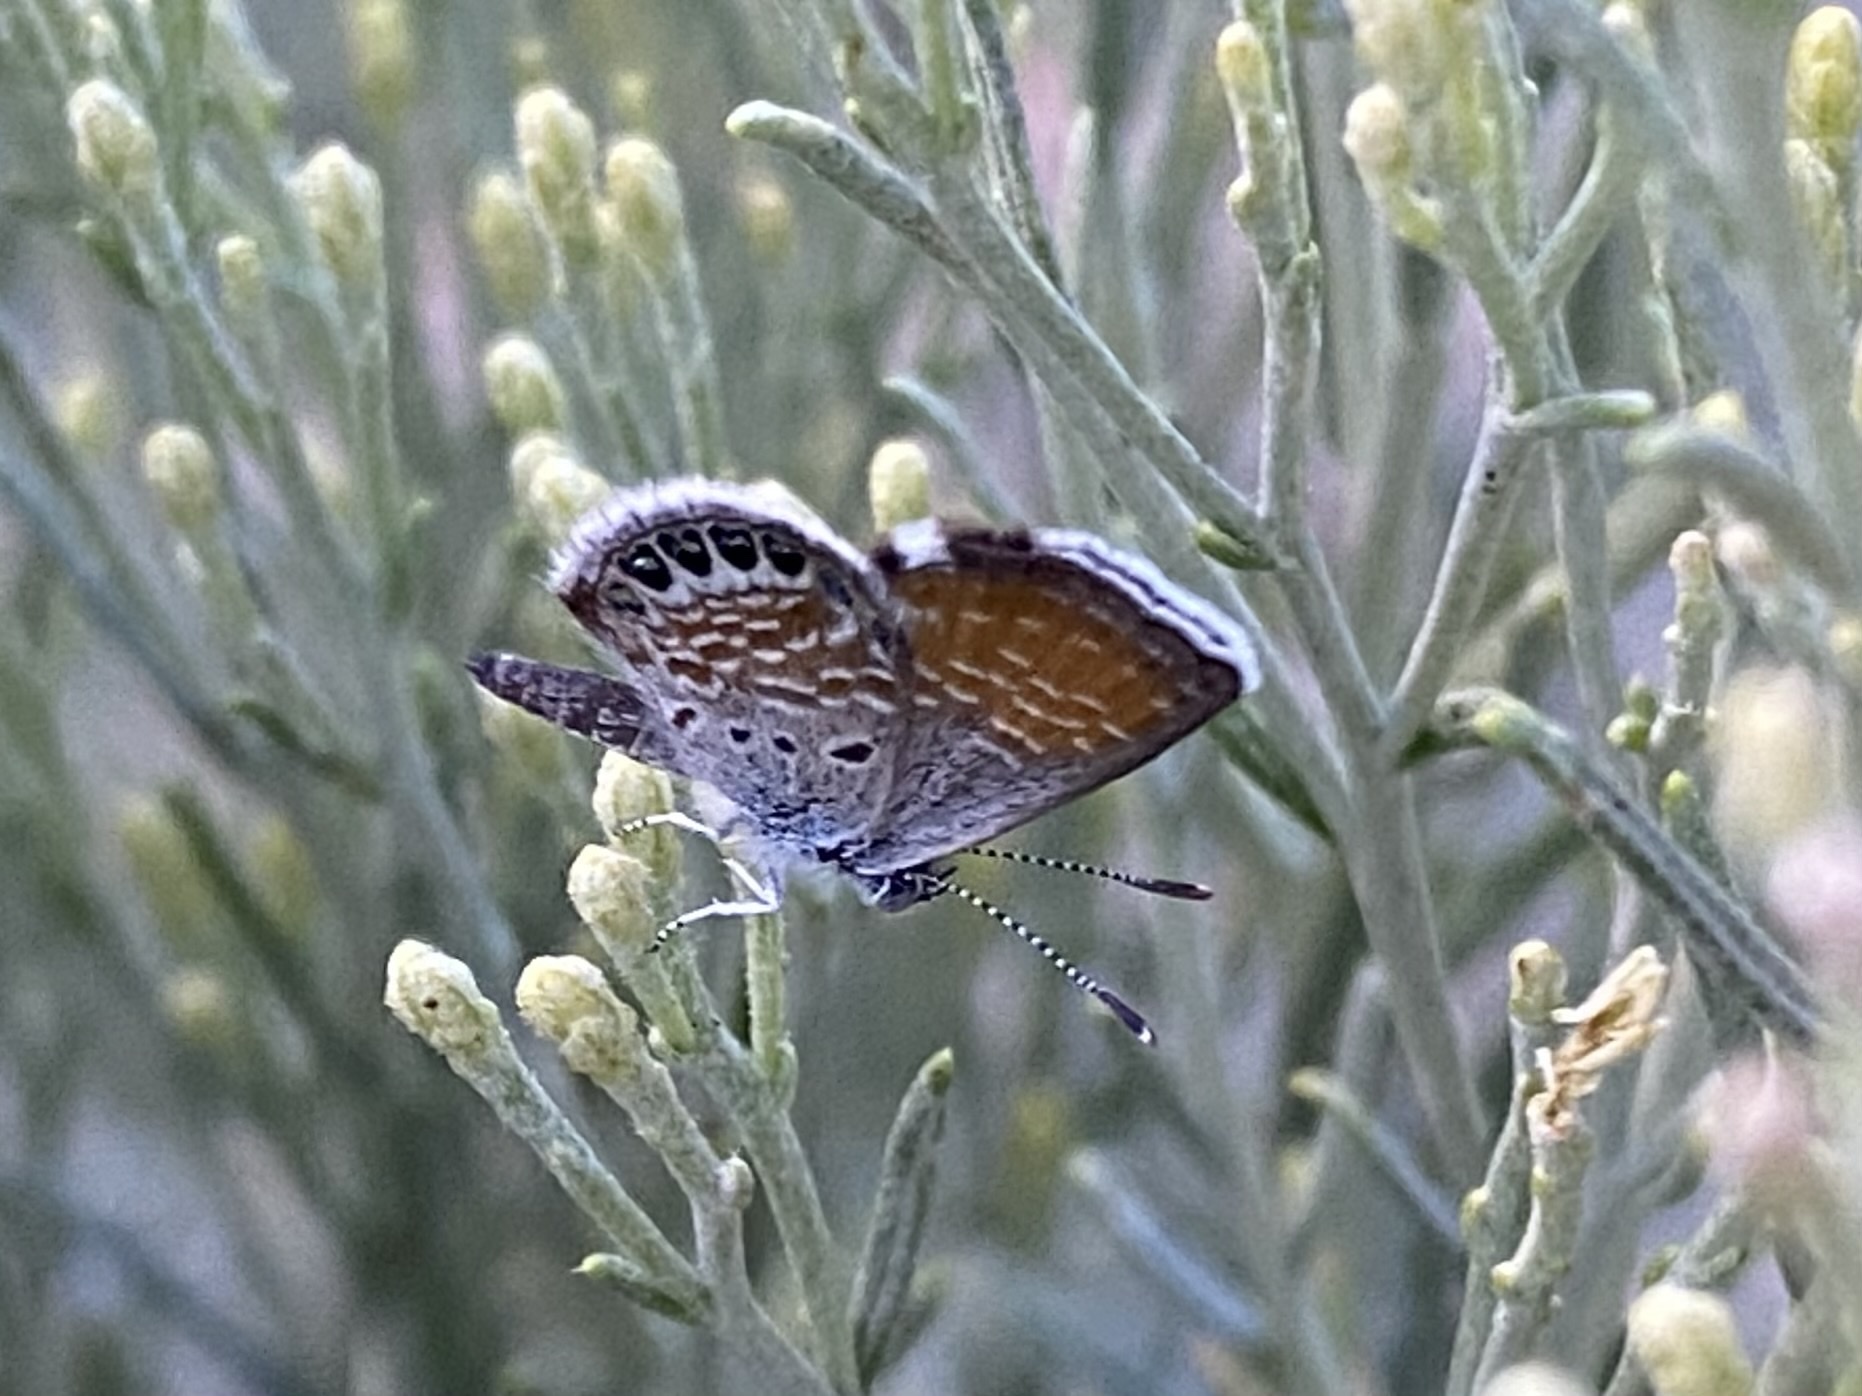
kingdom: Animalia
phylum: Arthropoda
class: Insecta
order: Lepidoptera
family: Lycaenidae
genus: Brephidium
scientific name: Brephidium exilis
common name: Pygmy blue
